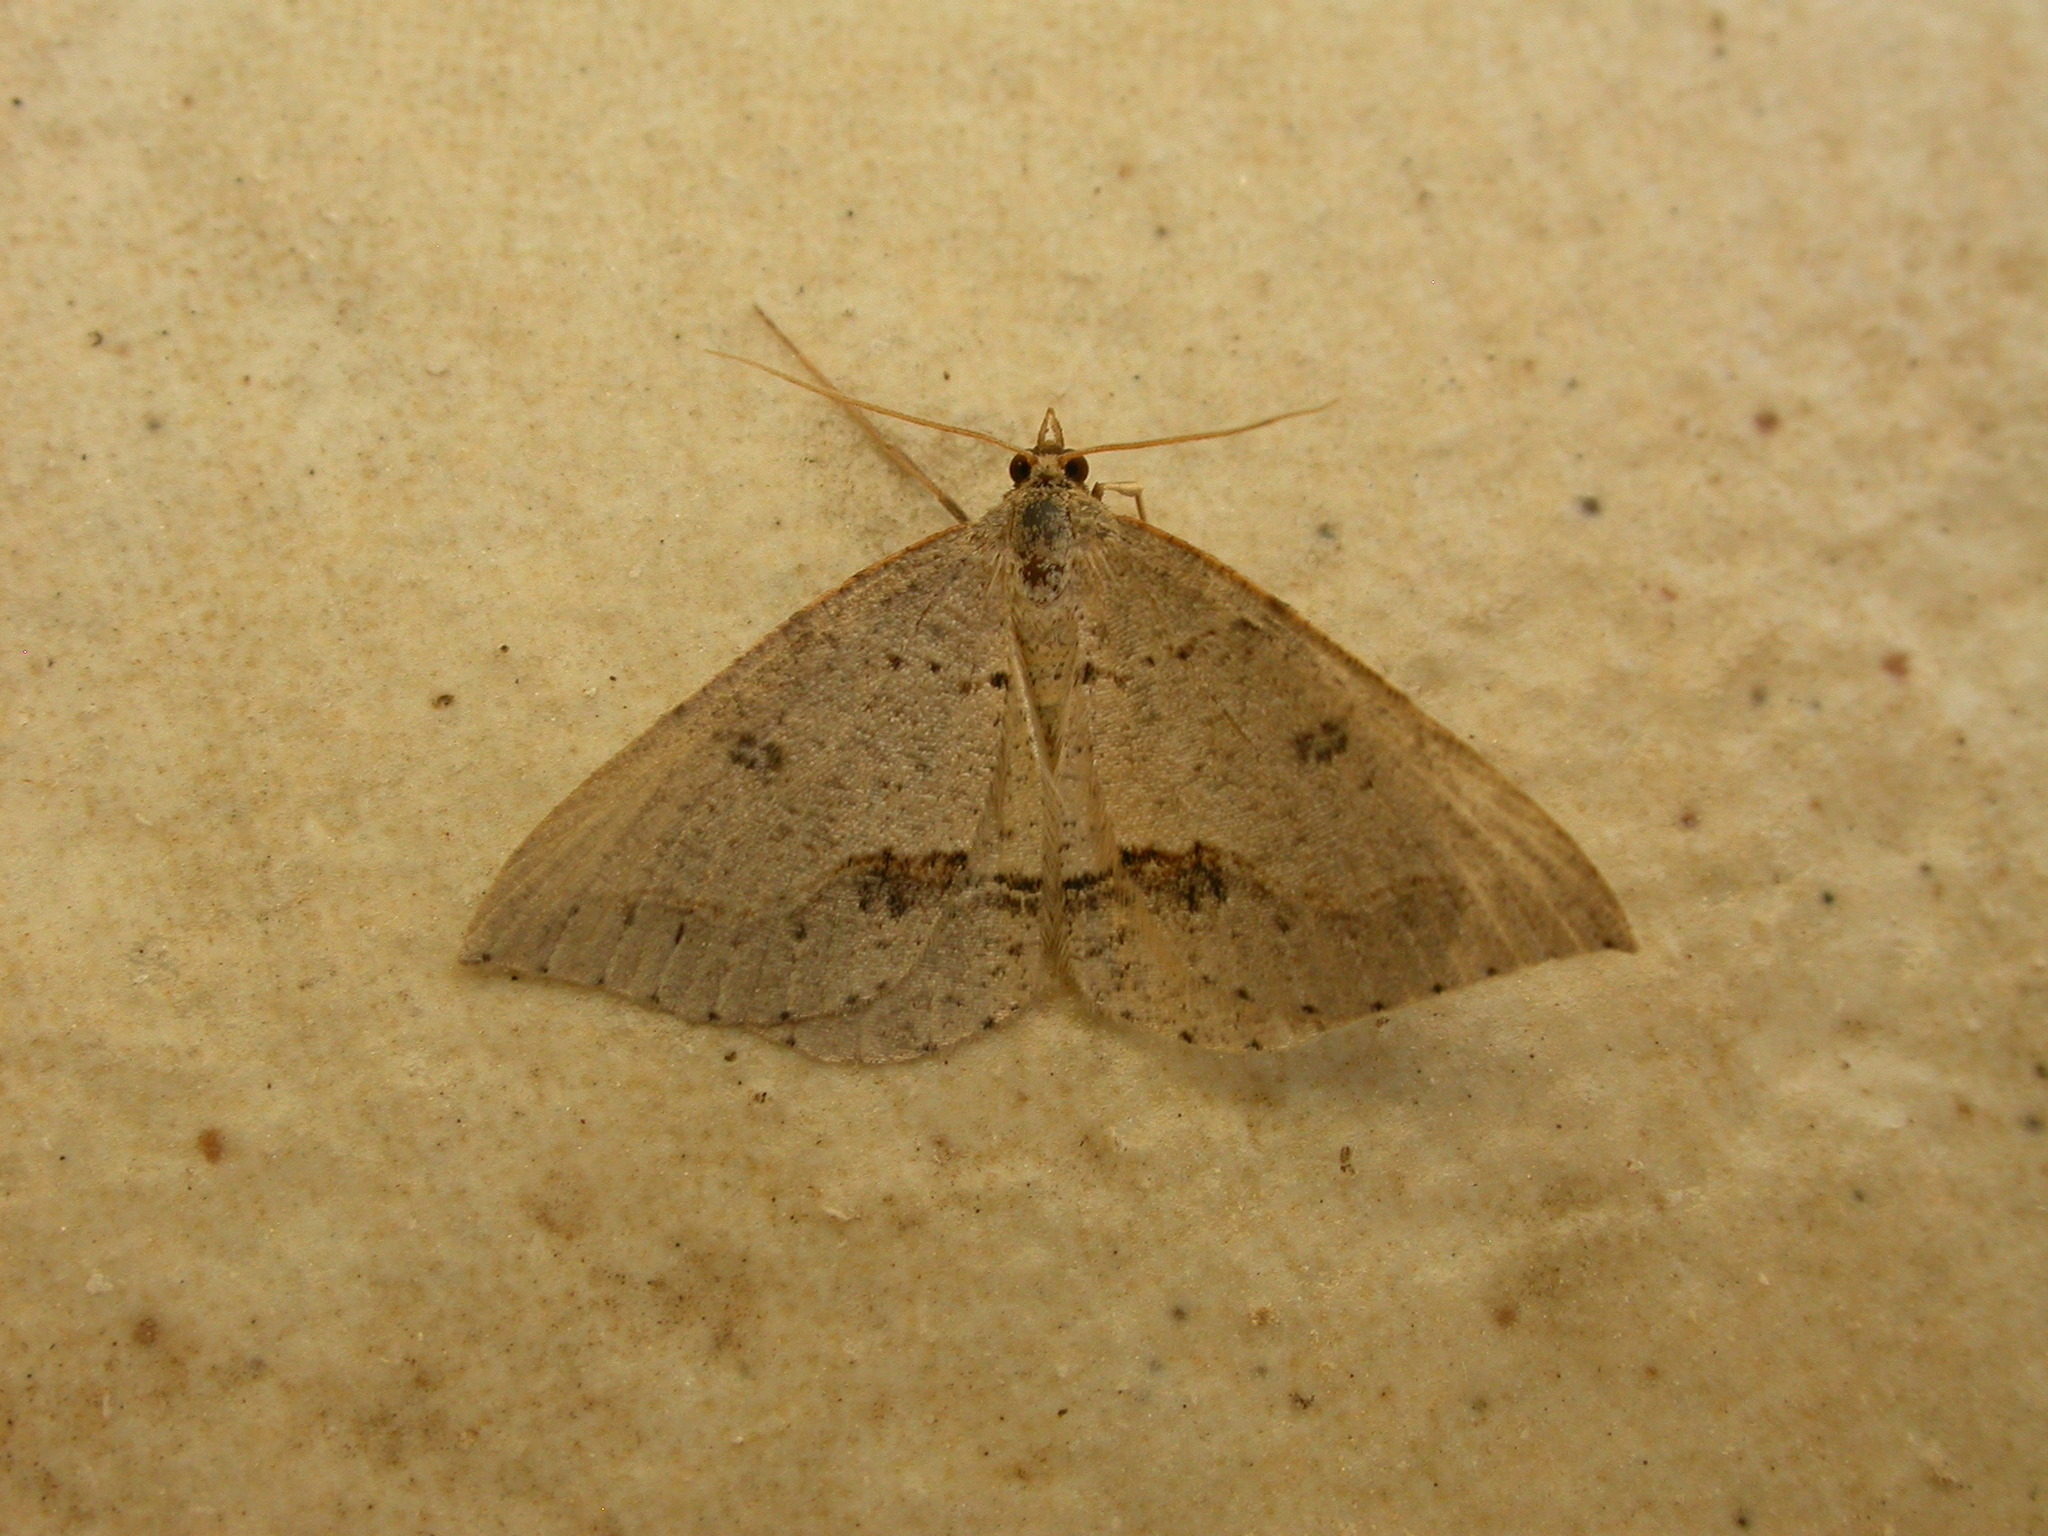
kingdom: Animalia
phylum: Arthropoda
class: Insecta
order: Lepidoptera
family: Geometridae
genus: Taxeotis
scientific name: Taxeotis stereospila
